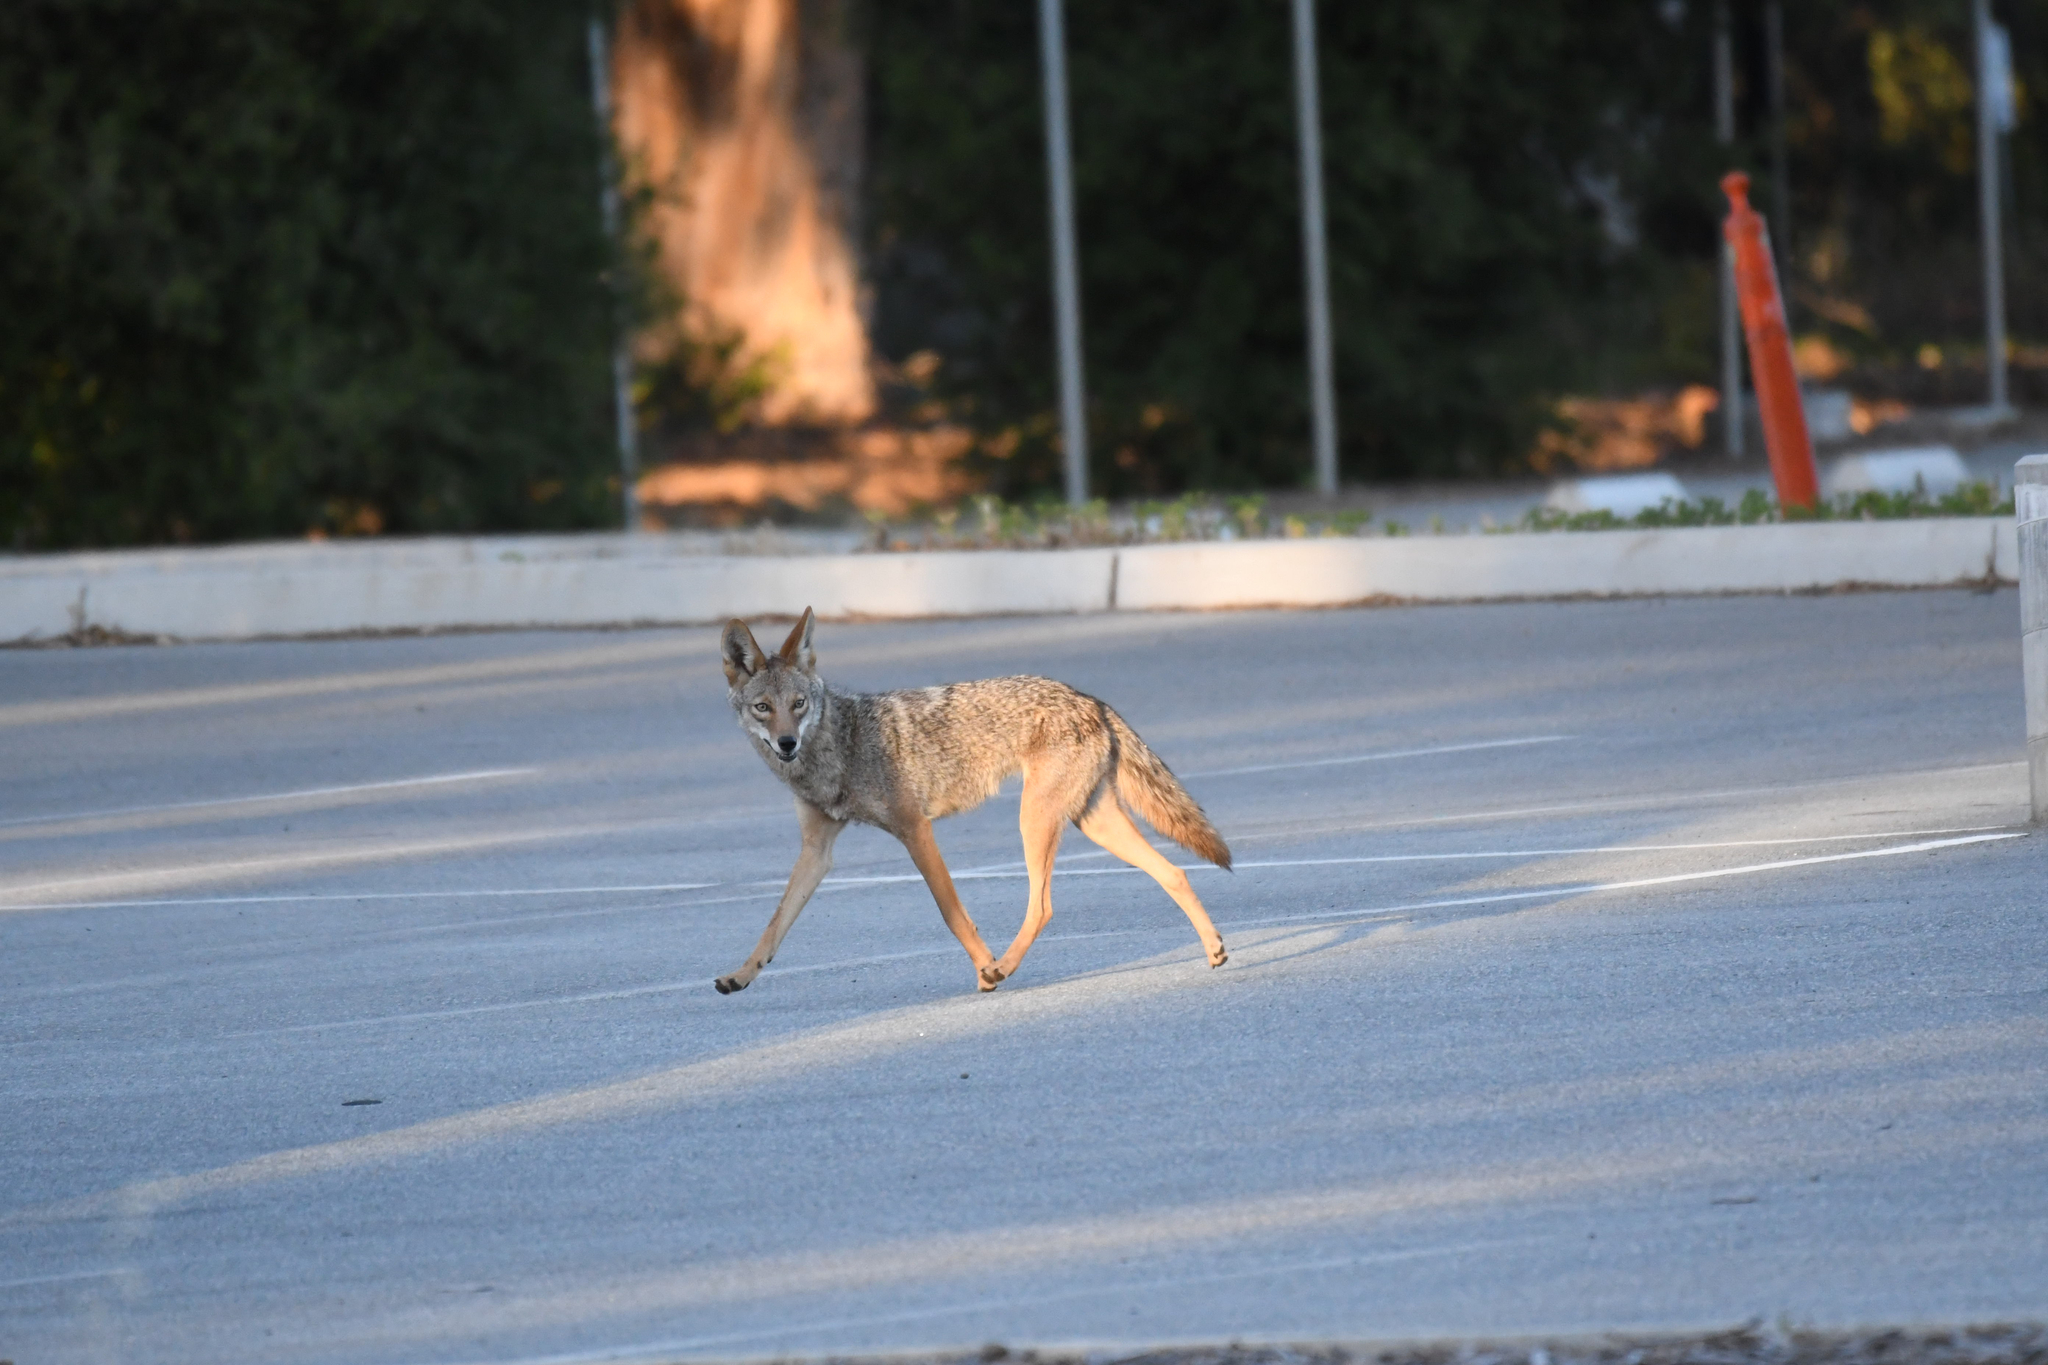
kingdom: Animalia
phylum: Chordata
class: Mammalia
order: Carnivora
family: Canidae
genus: Canis
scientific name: Canis latrans
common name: Coyote
